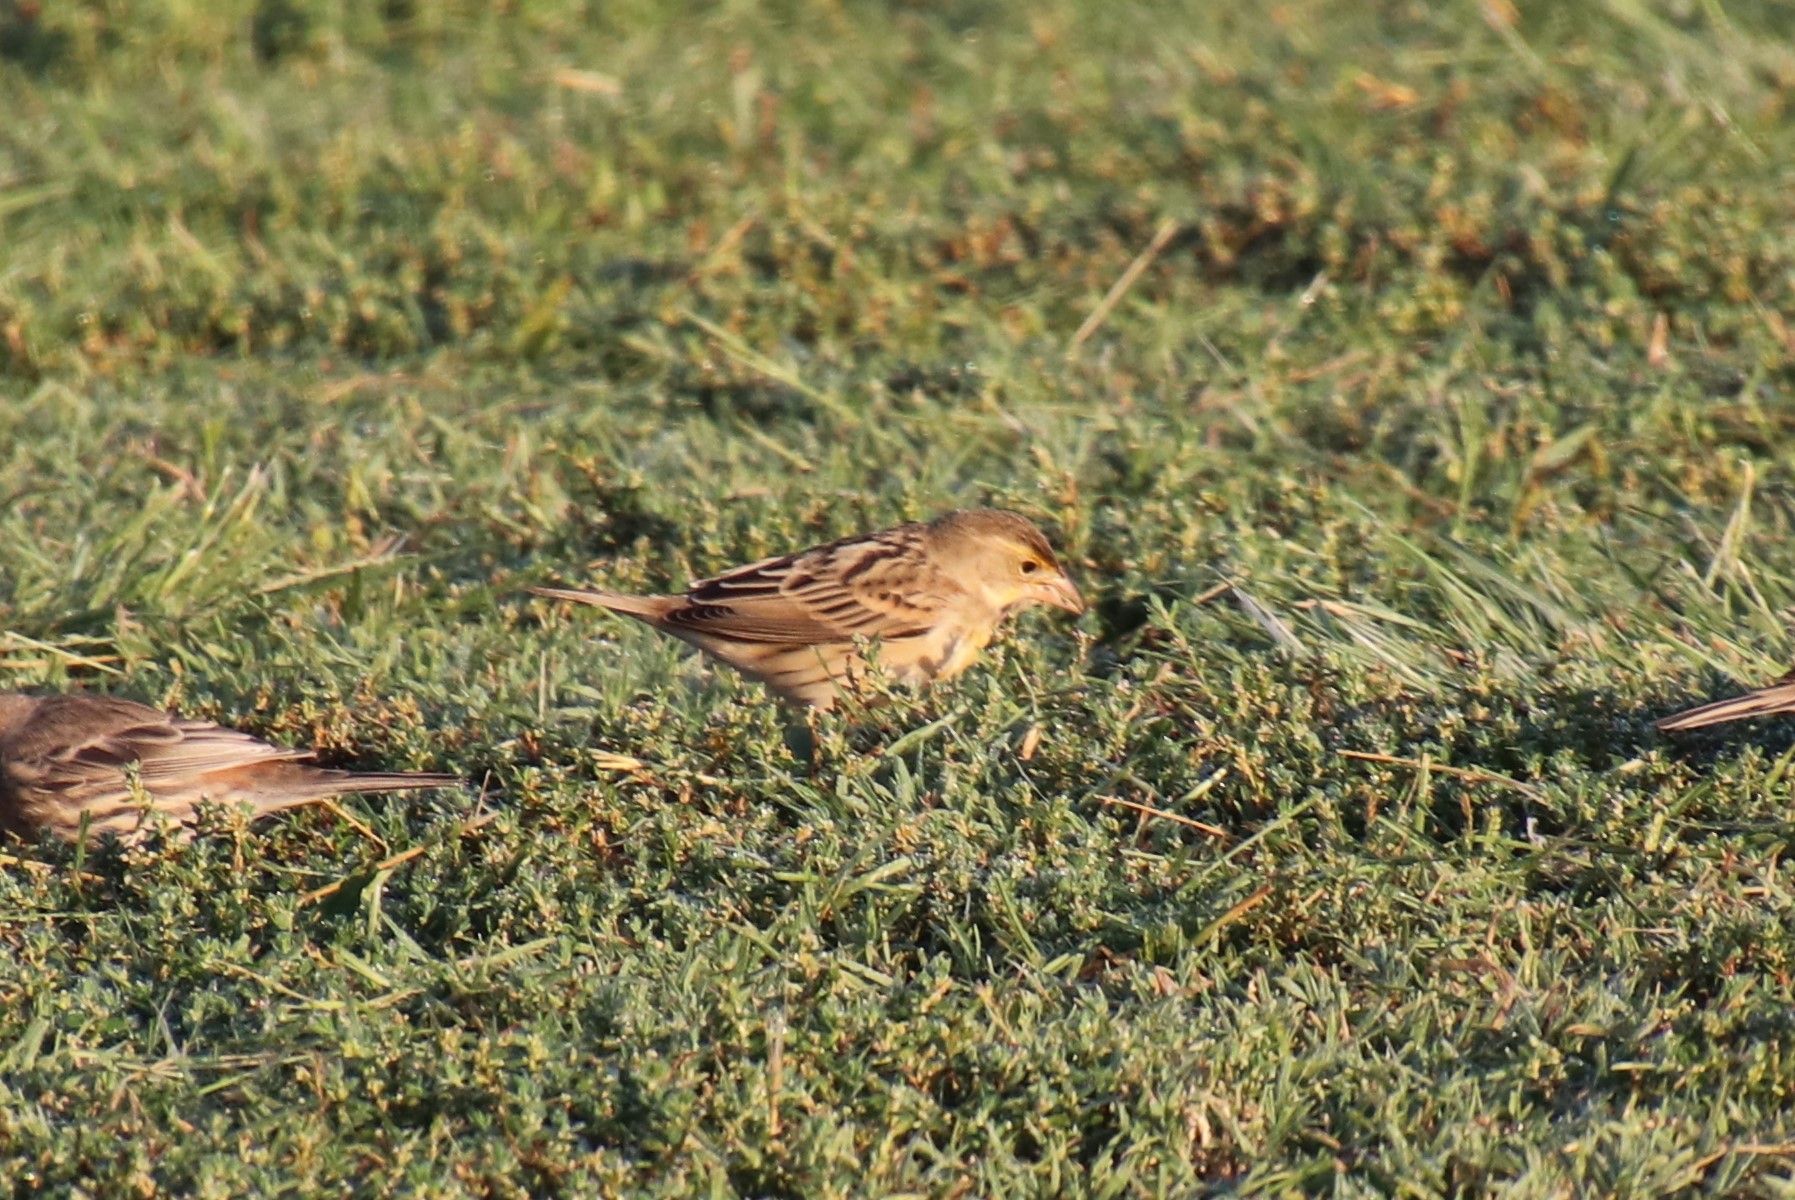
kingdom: Animalia
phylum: Chordata
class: Aves
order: Passeriformes
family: Cardinalidae
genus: Spiza
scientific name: Spiza americana
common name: Dickcissel
